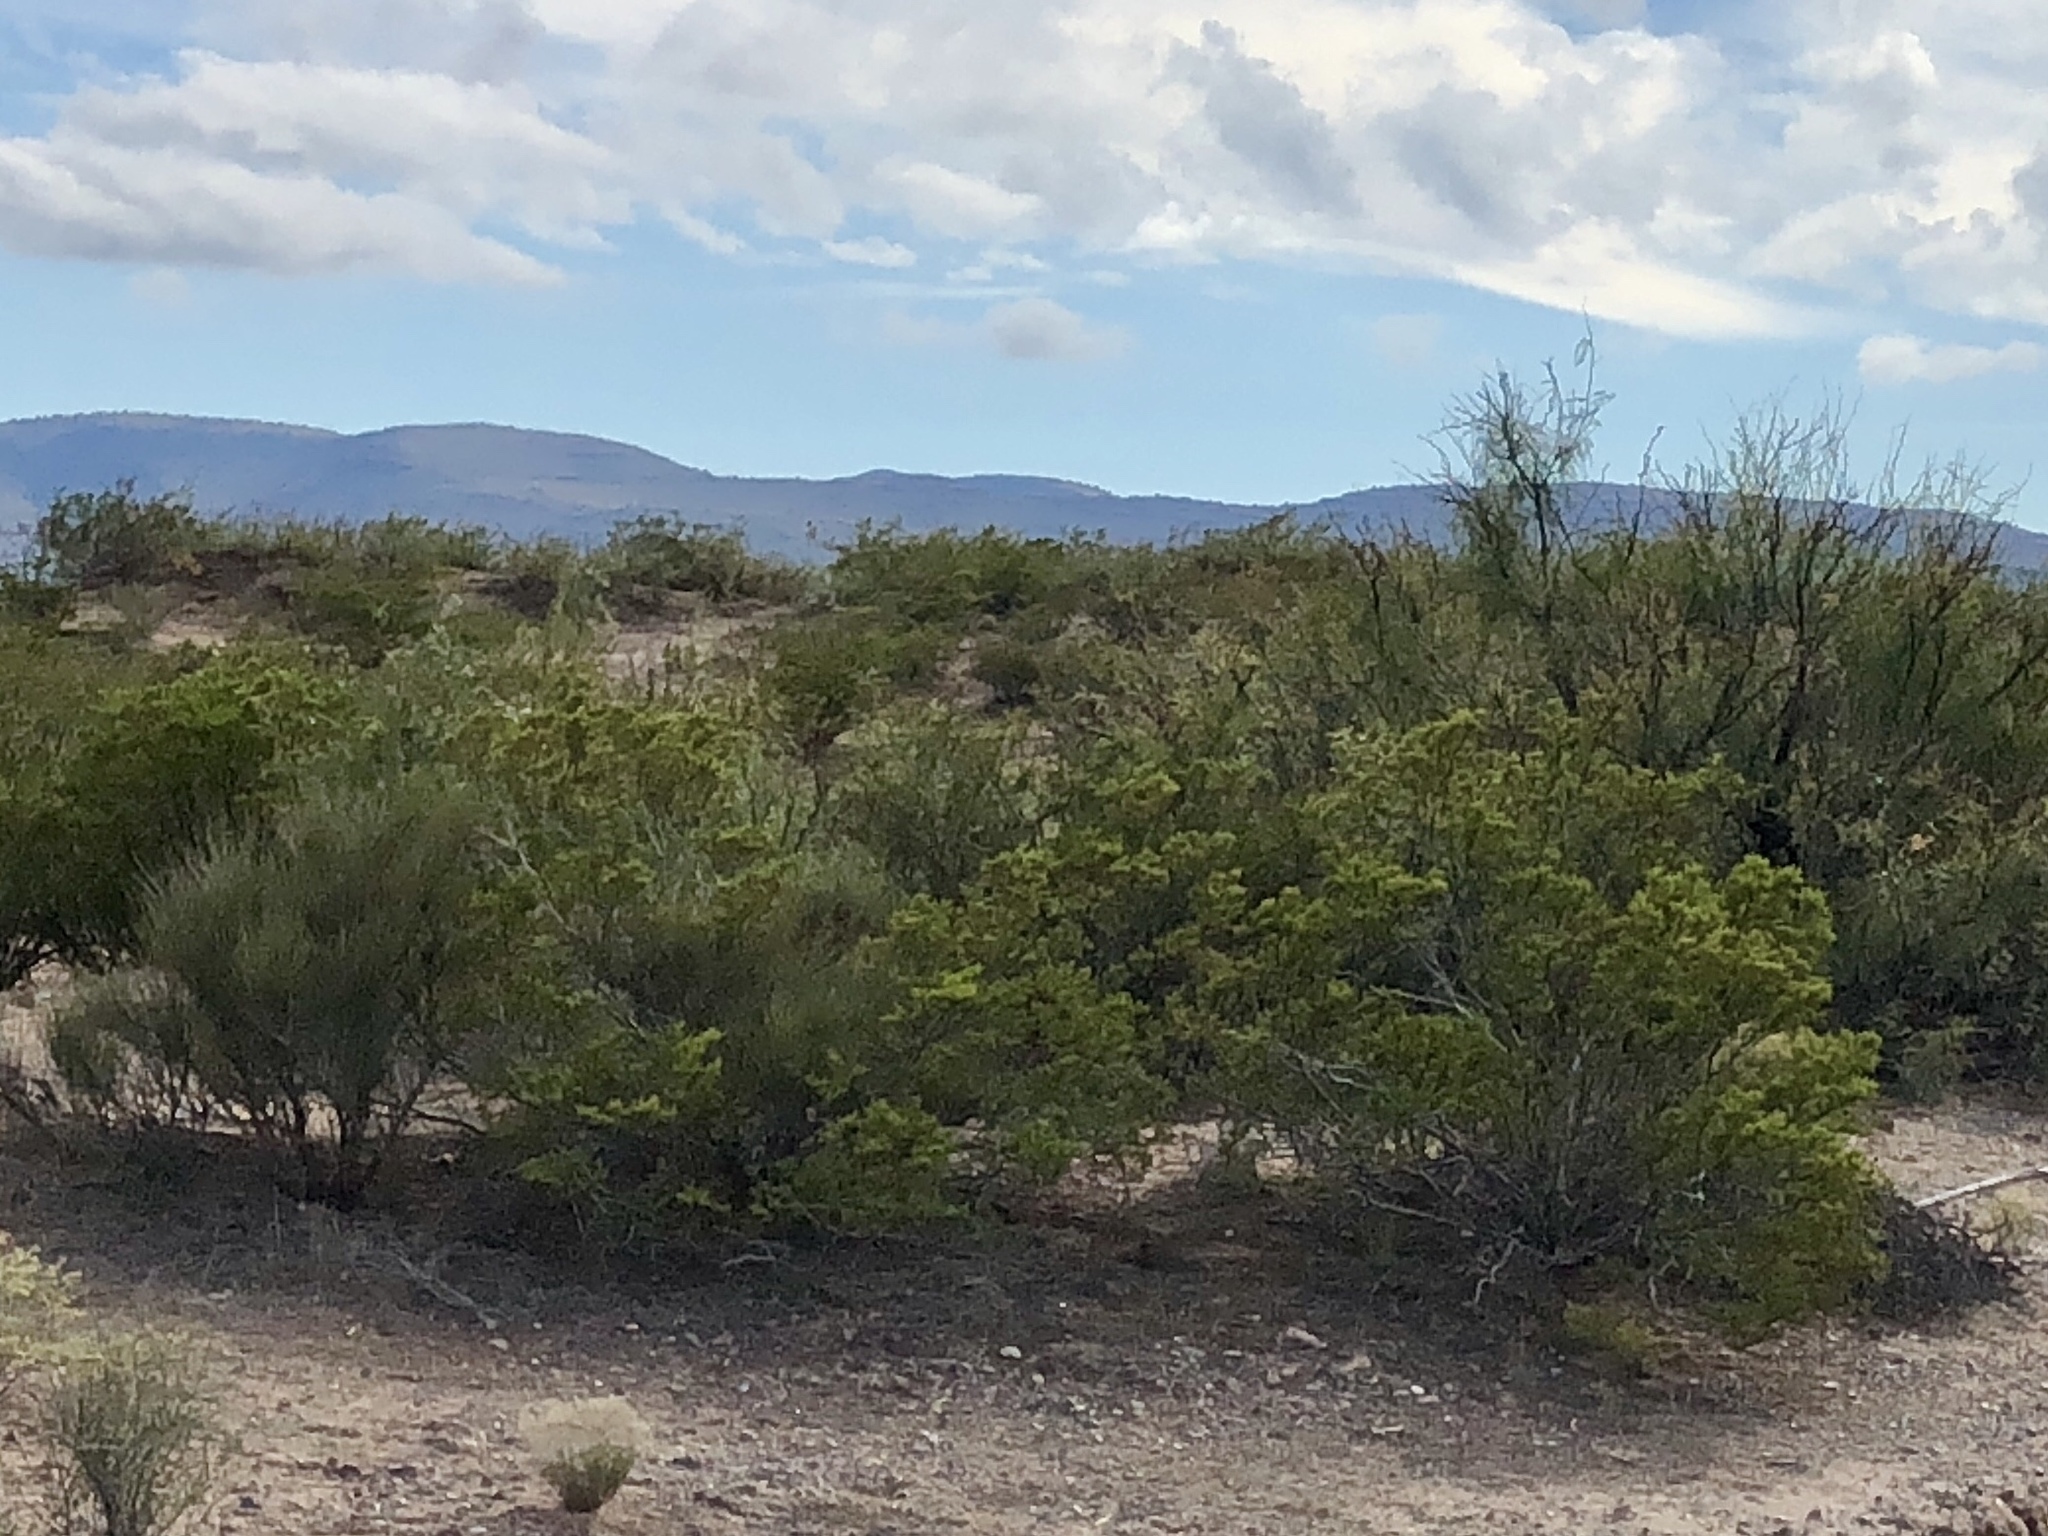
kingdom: Plantae
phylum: Tracheophyta
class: Magnoliopsida
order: Zygophyllales
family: Zygophyllaceae
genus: Larrea
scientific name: Larrea tridentata
